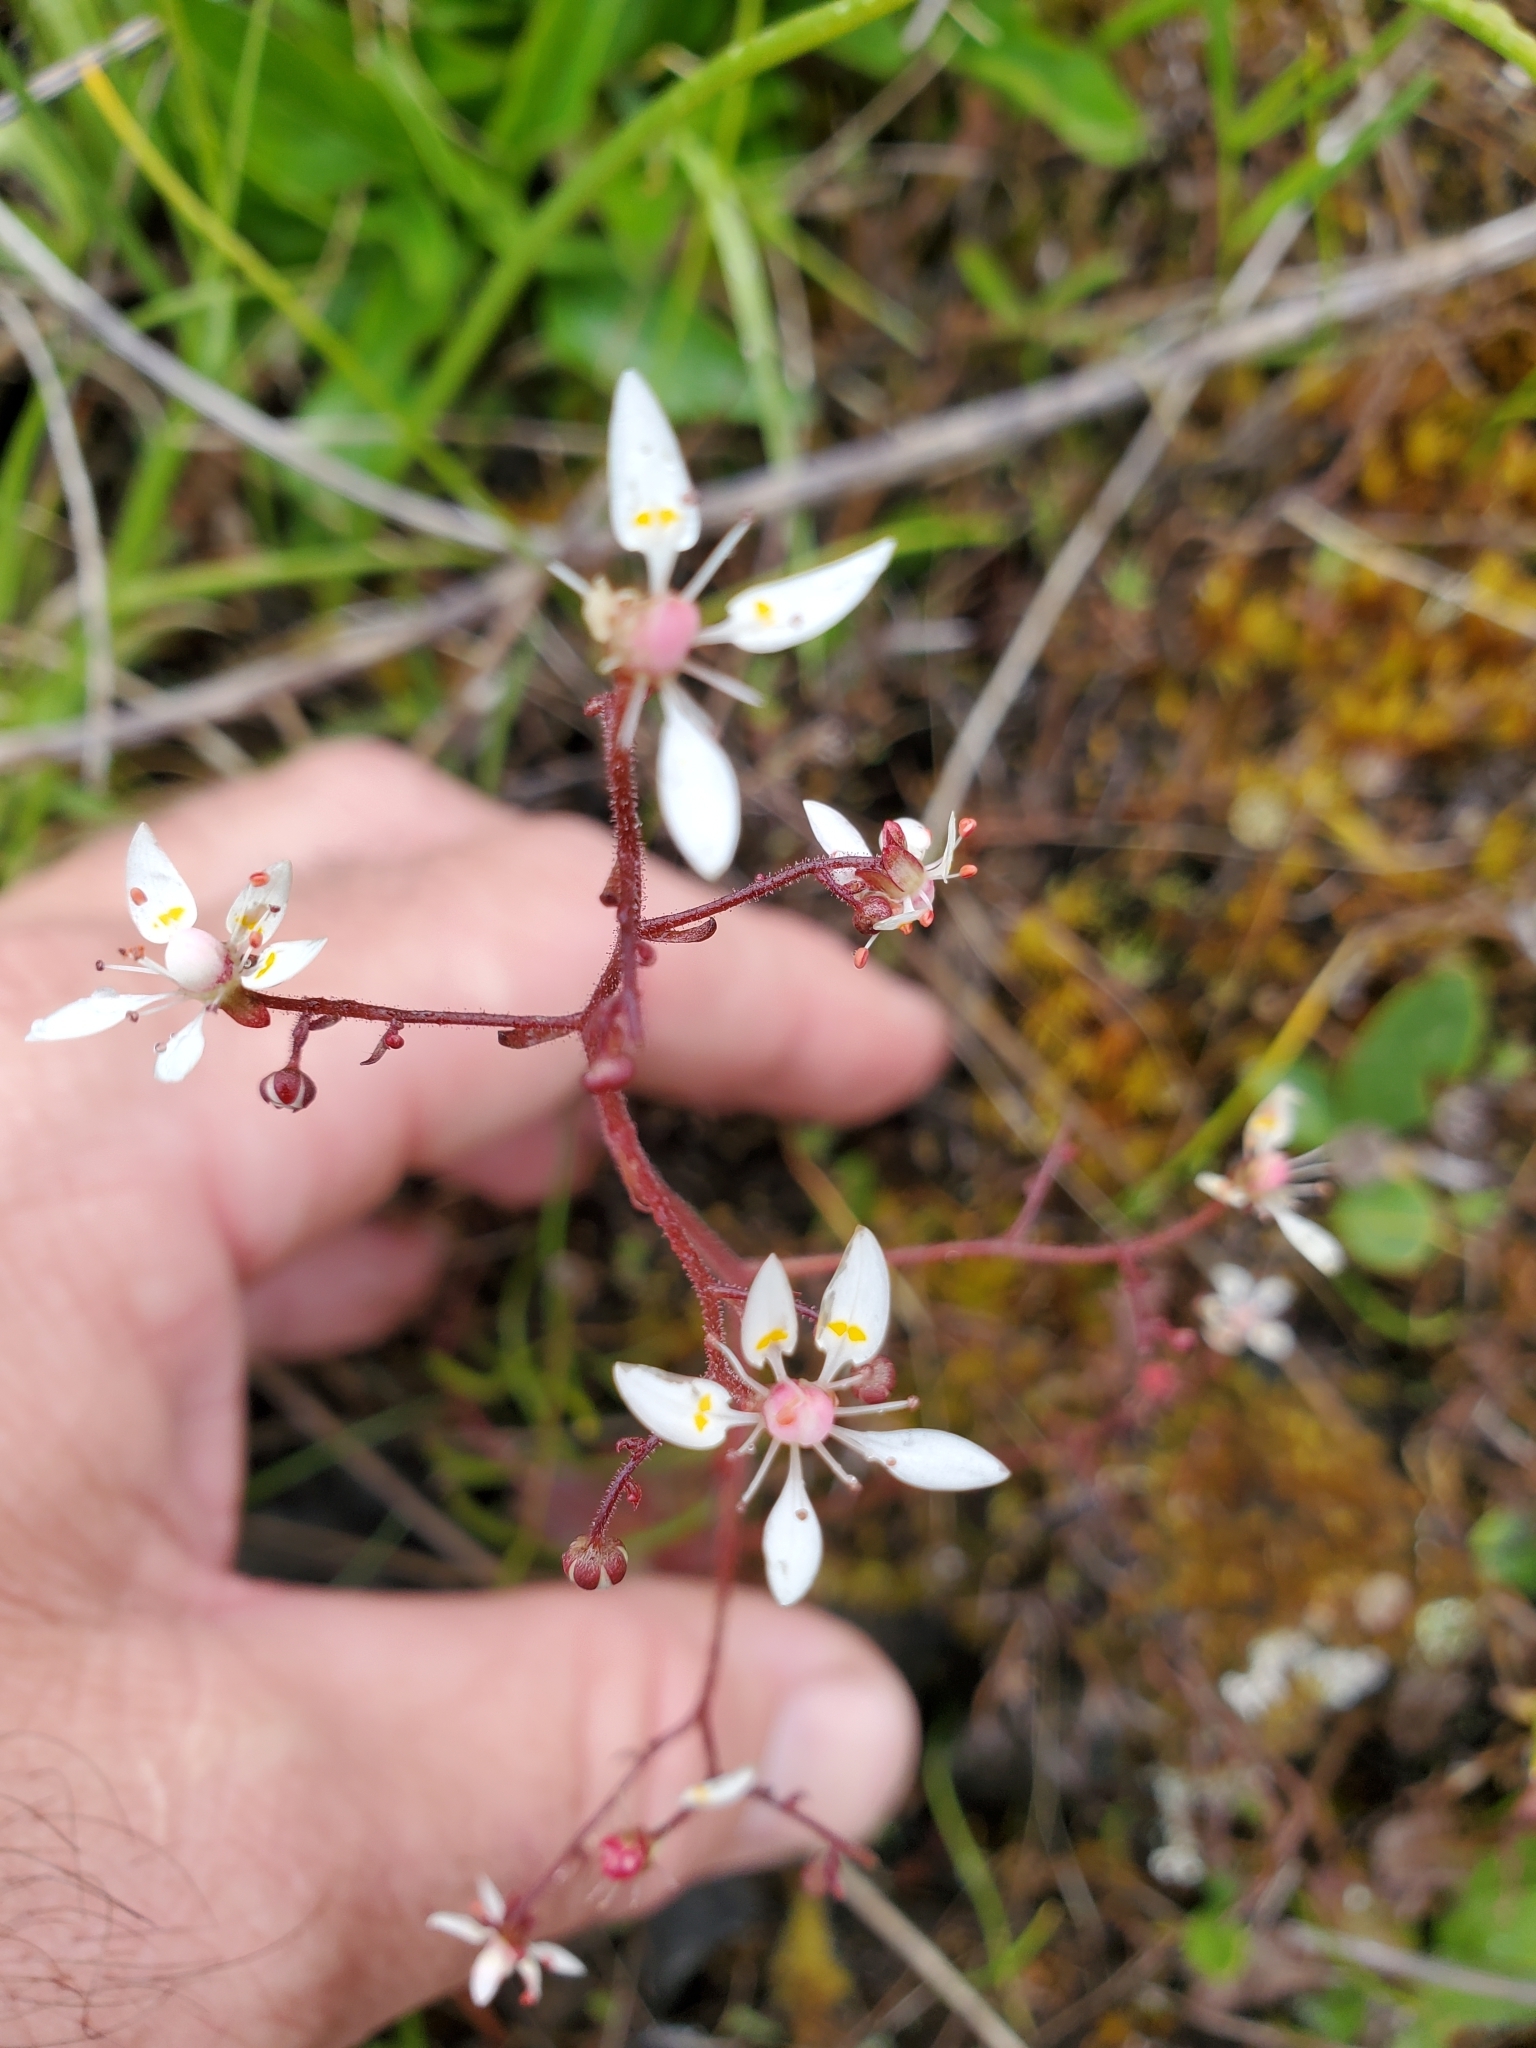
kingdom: Plantae
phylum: Tracheophyta
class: Magnoliopsida
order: Saxifragales
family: Saxifragaceae
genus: Micranthes
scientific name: Micranthes ferruginea
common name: Rusty saxifrage
